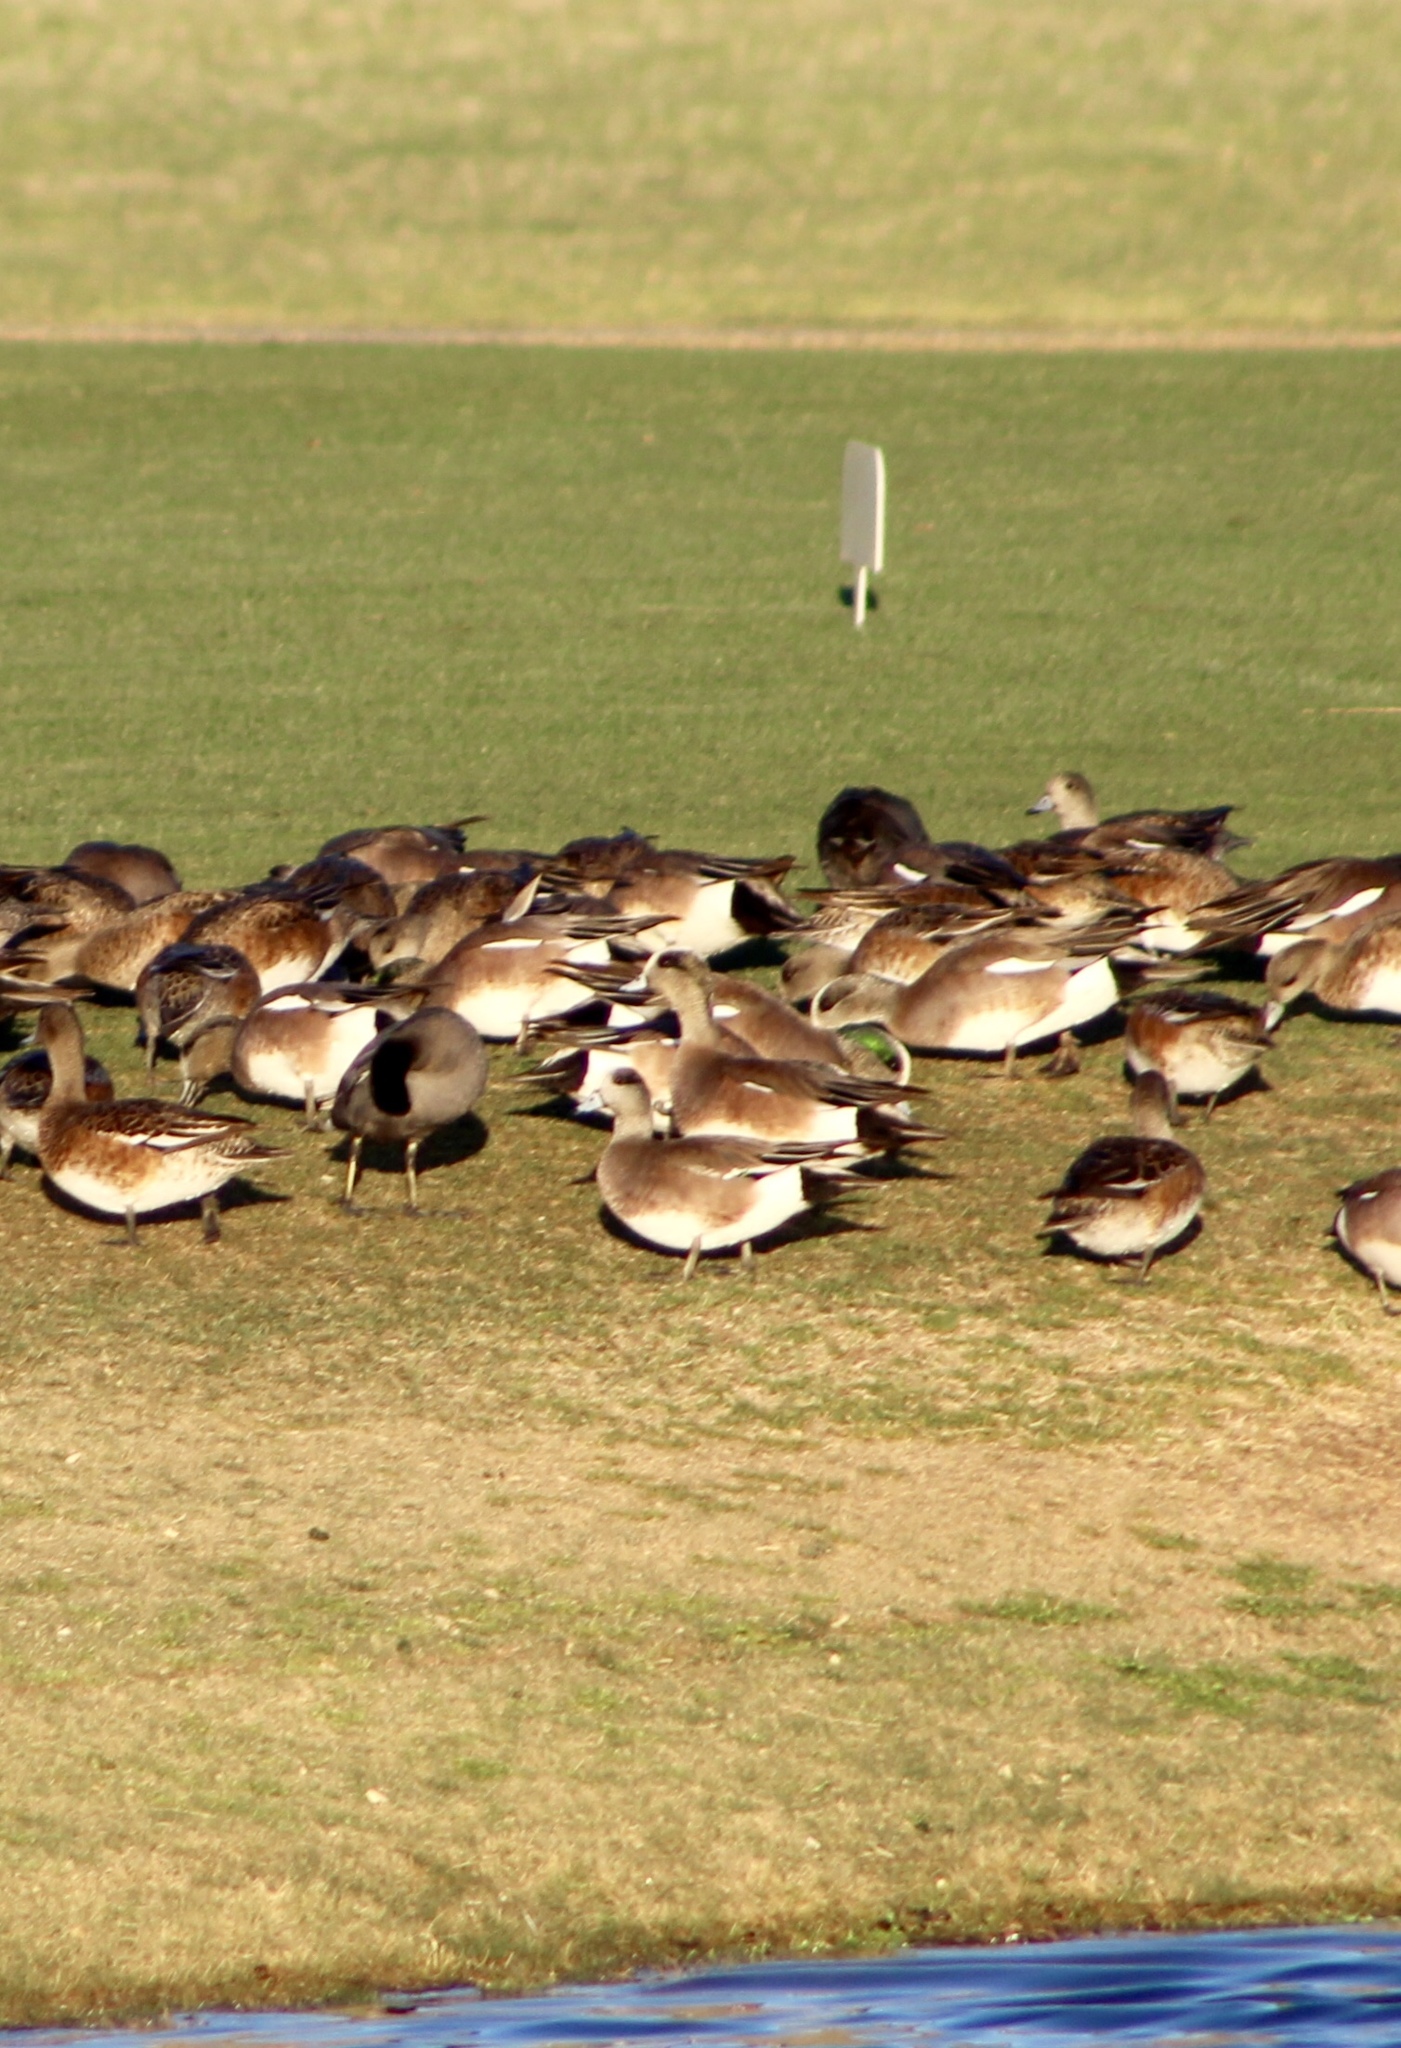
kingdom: Animalia
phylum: Chordata
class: Aves
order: Anseriformes
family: Anatidae
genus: Mareca
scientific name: Mareca americana
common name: American wigeon
